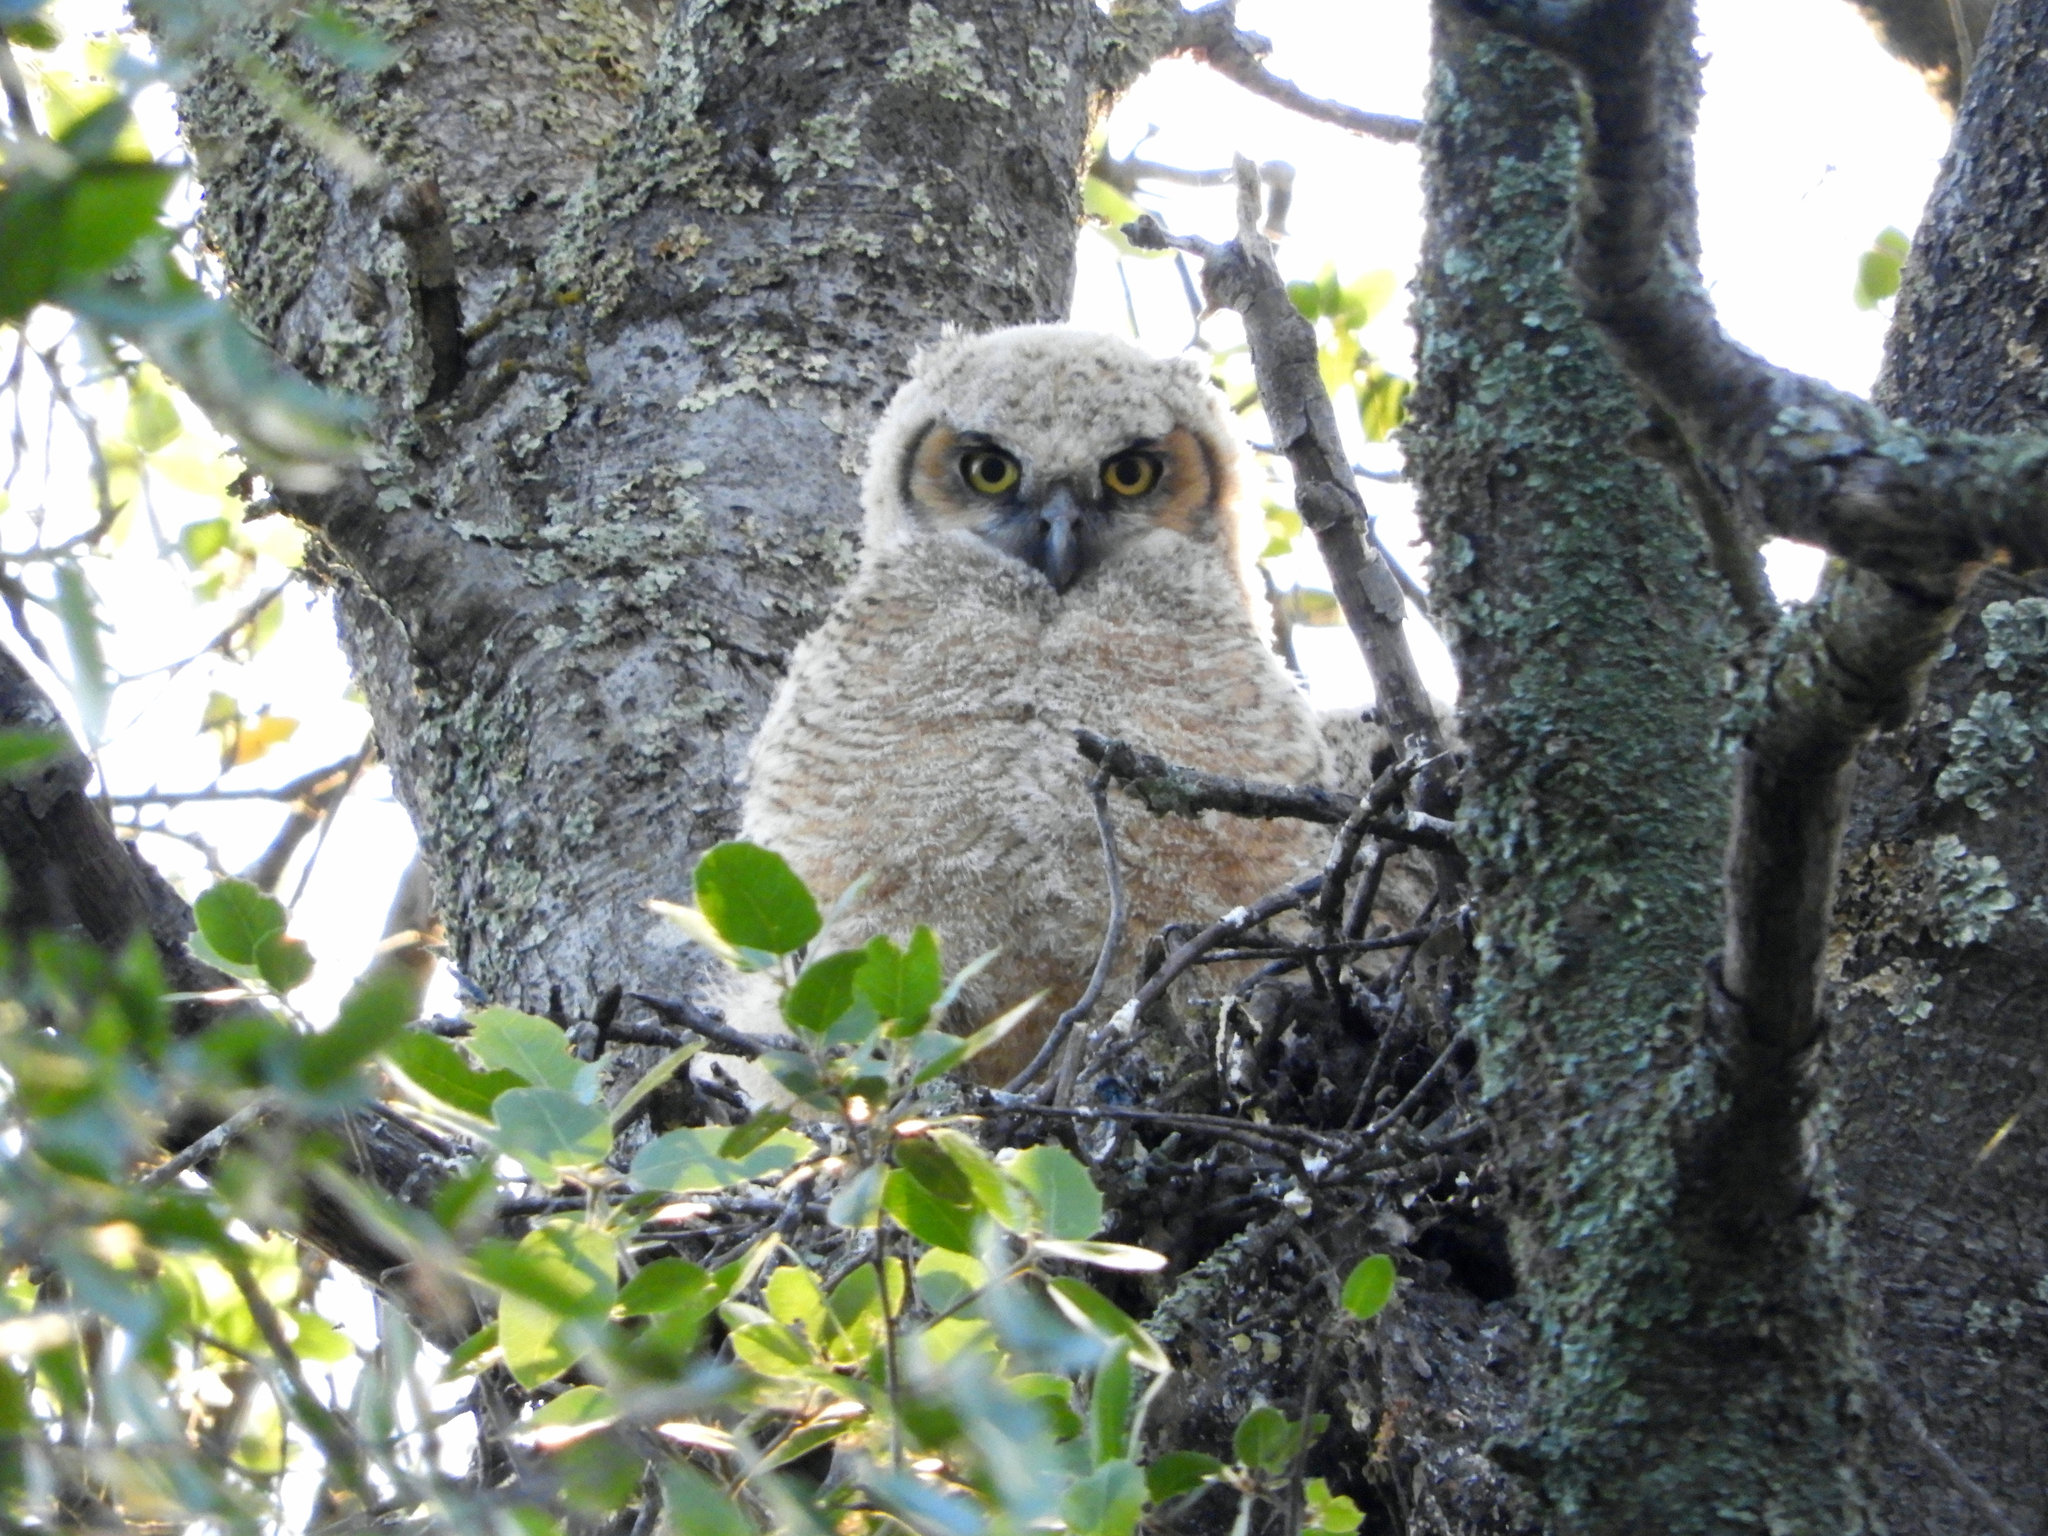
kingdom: Animalia
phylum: Chordata
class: Aves
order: Strigiformes
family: Strigidae
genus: Bubo
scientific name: Bubo virginianus
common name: Great horned owl
